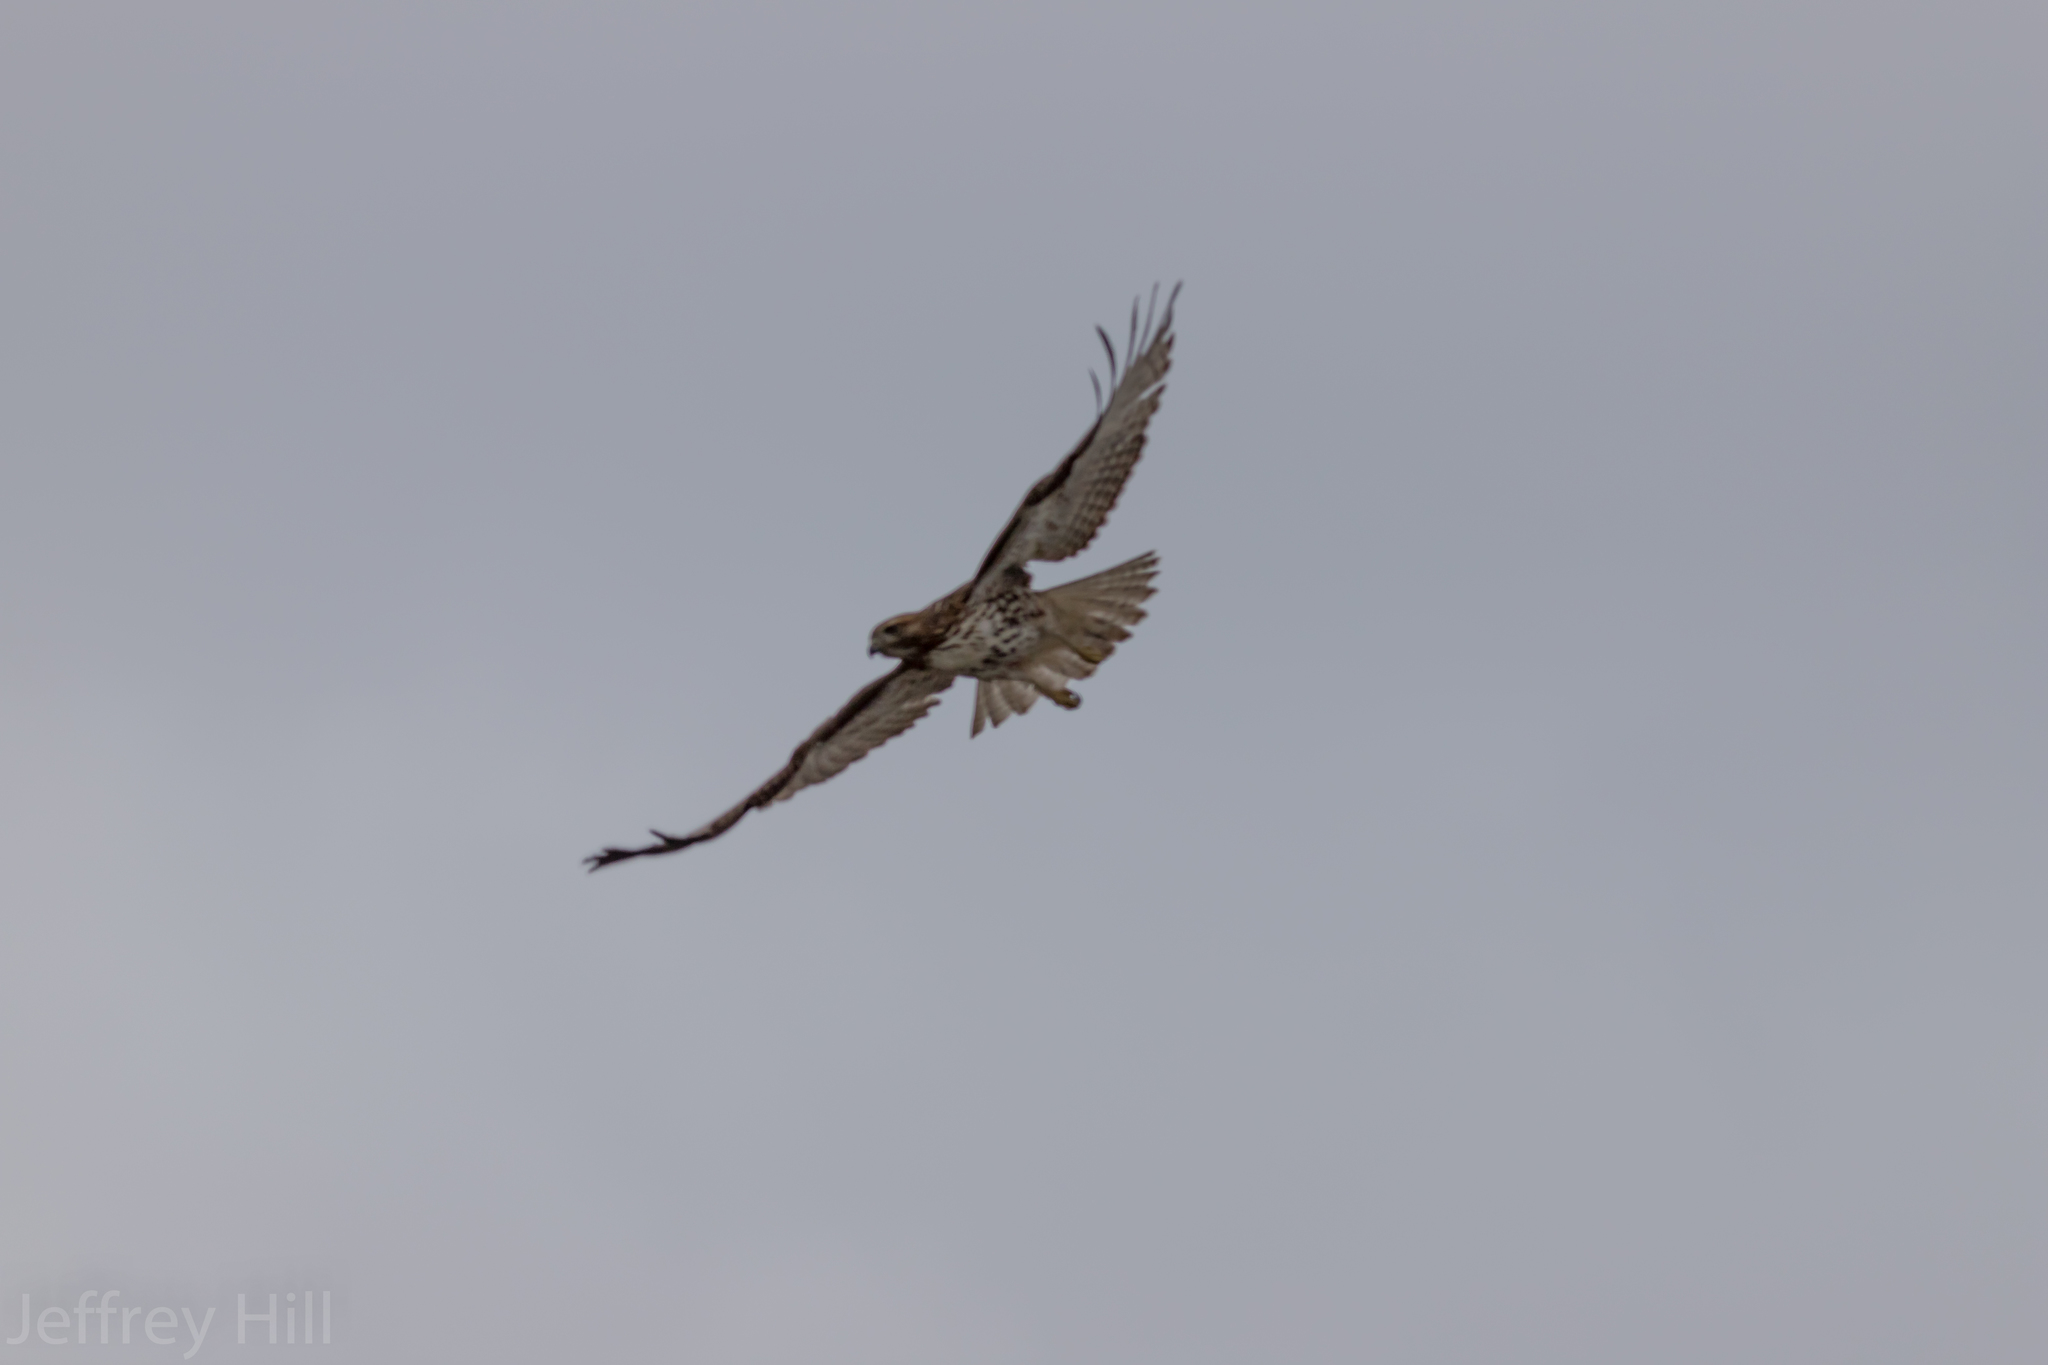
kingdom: Animalia
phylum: Chordata
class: Aves
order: Accipitriformes
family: Accipitridae
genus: Buteo
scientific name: Buteo jamaicensis
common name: Red-tailed hawk
